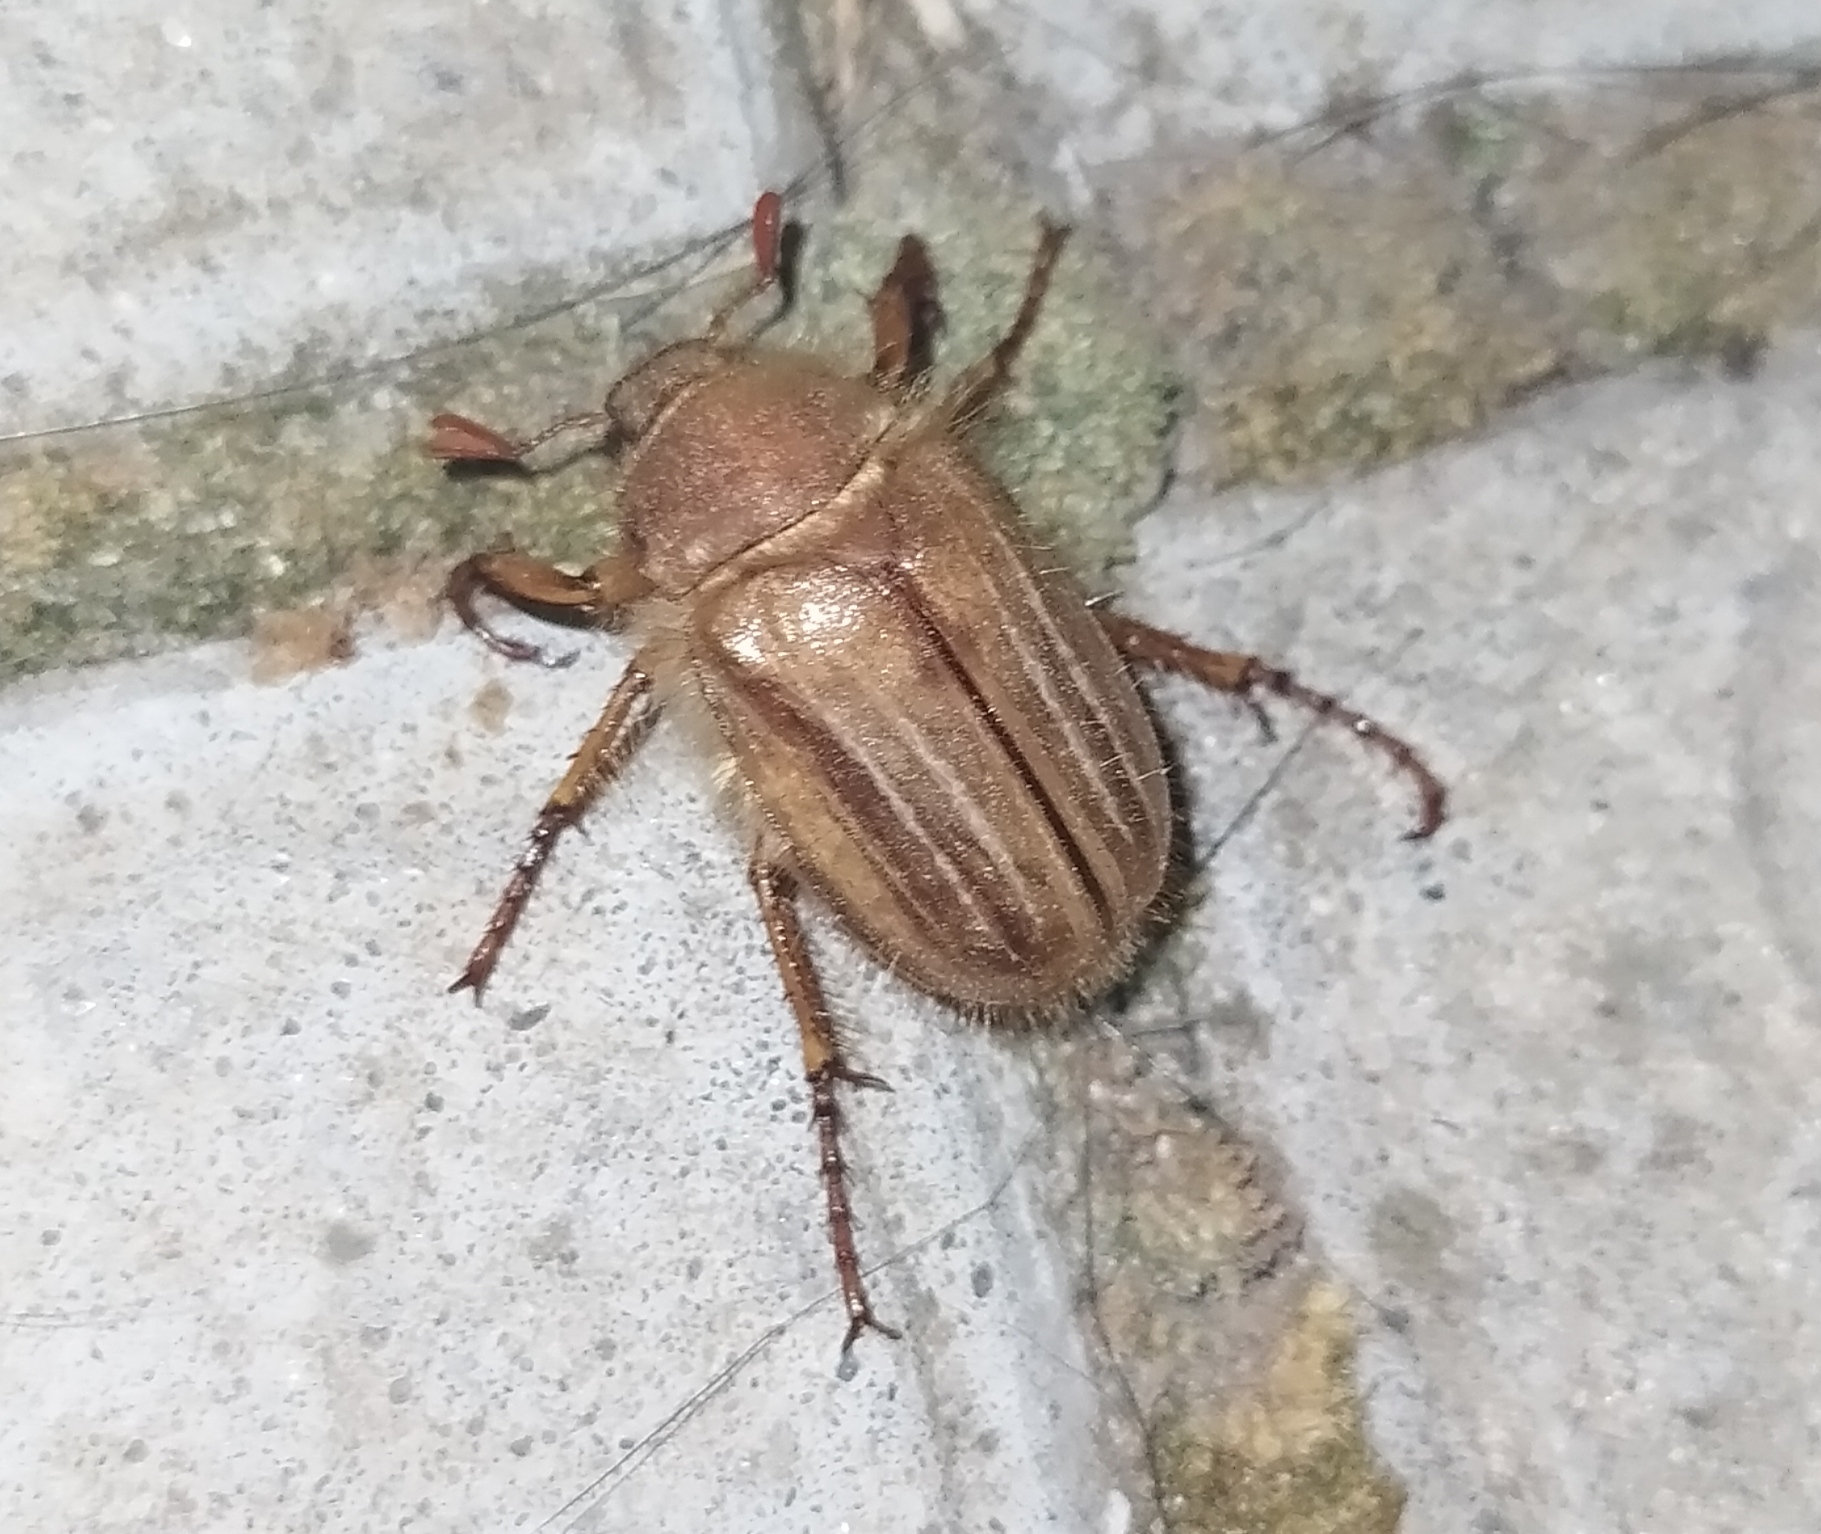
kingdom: Animalia
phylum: Arthropoda
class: Insecta
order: Coleoptera
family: Scarabaeidae
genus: Amphimallon
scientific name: Amphimallon solstitiale
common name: Summer chafer
